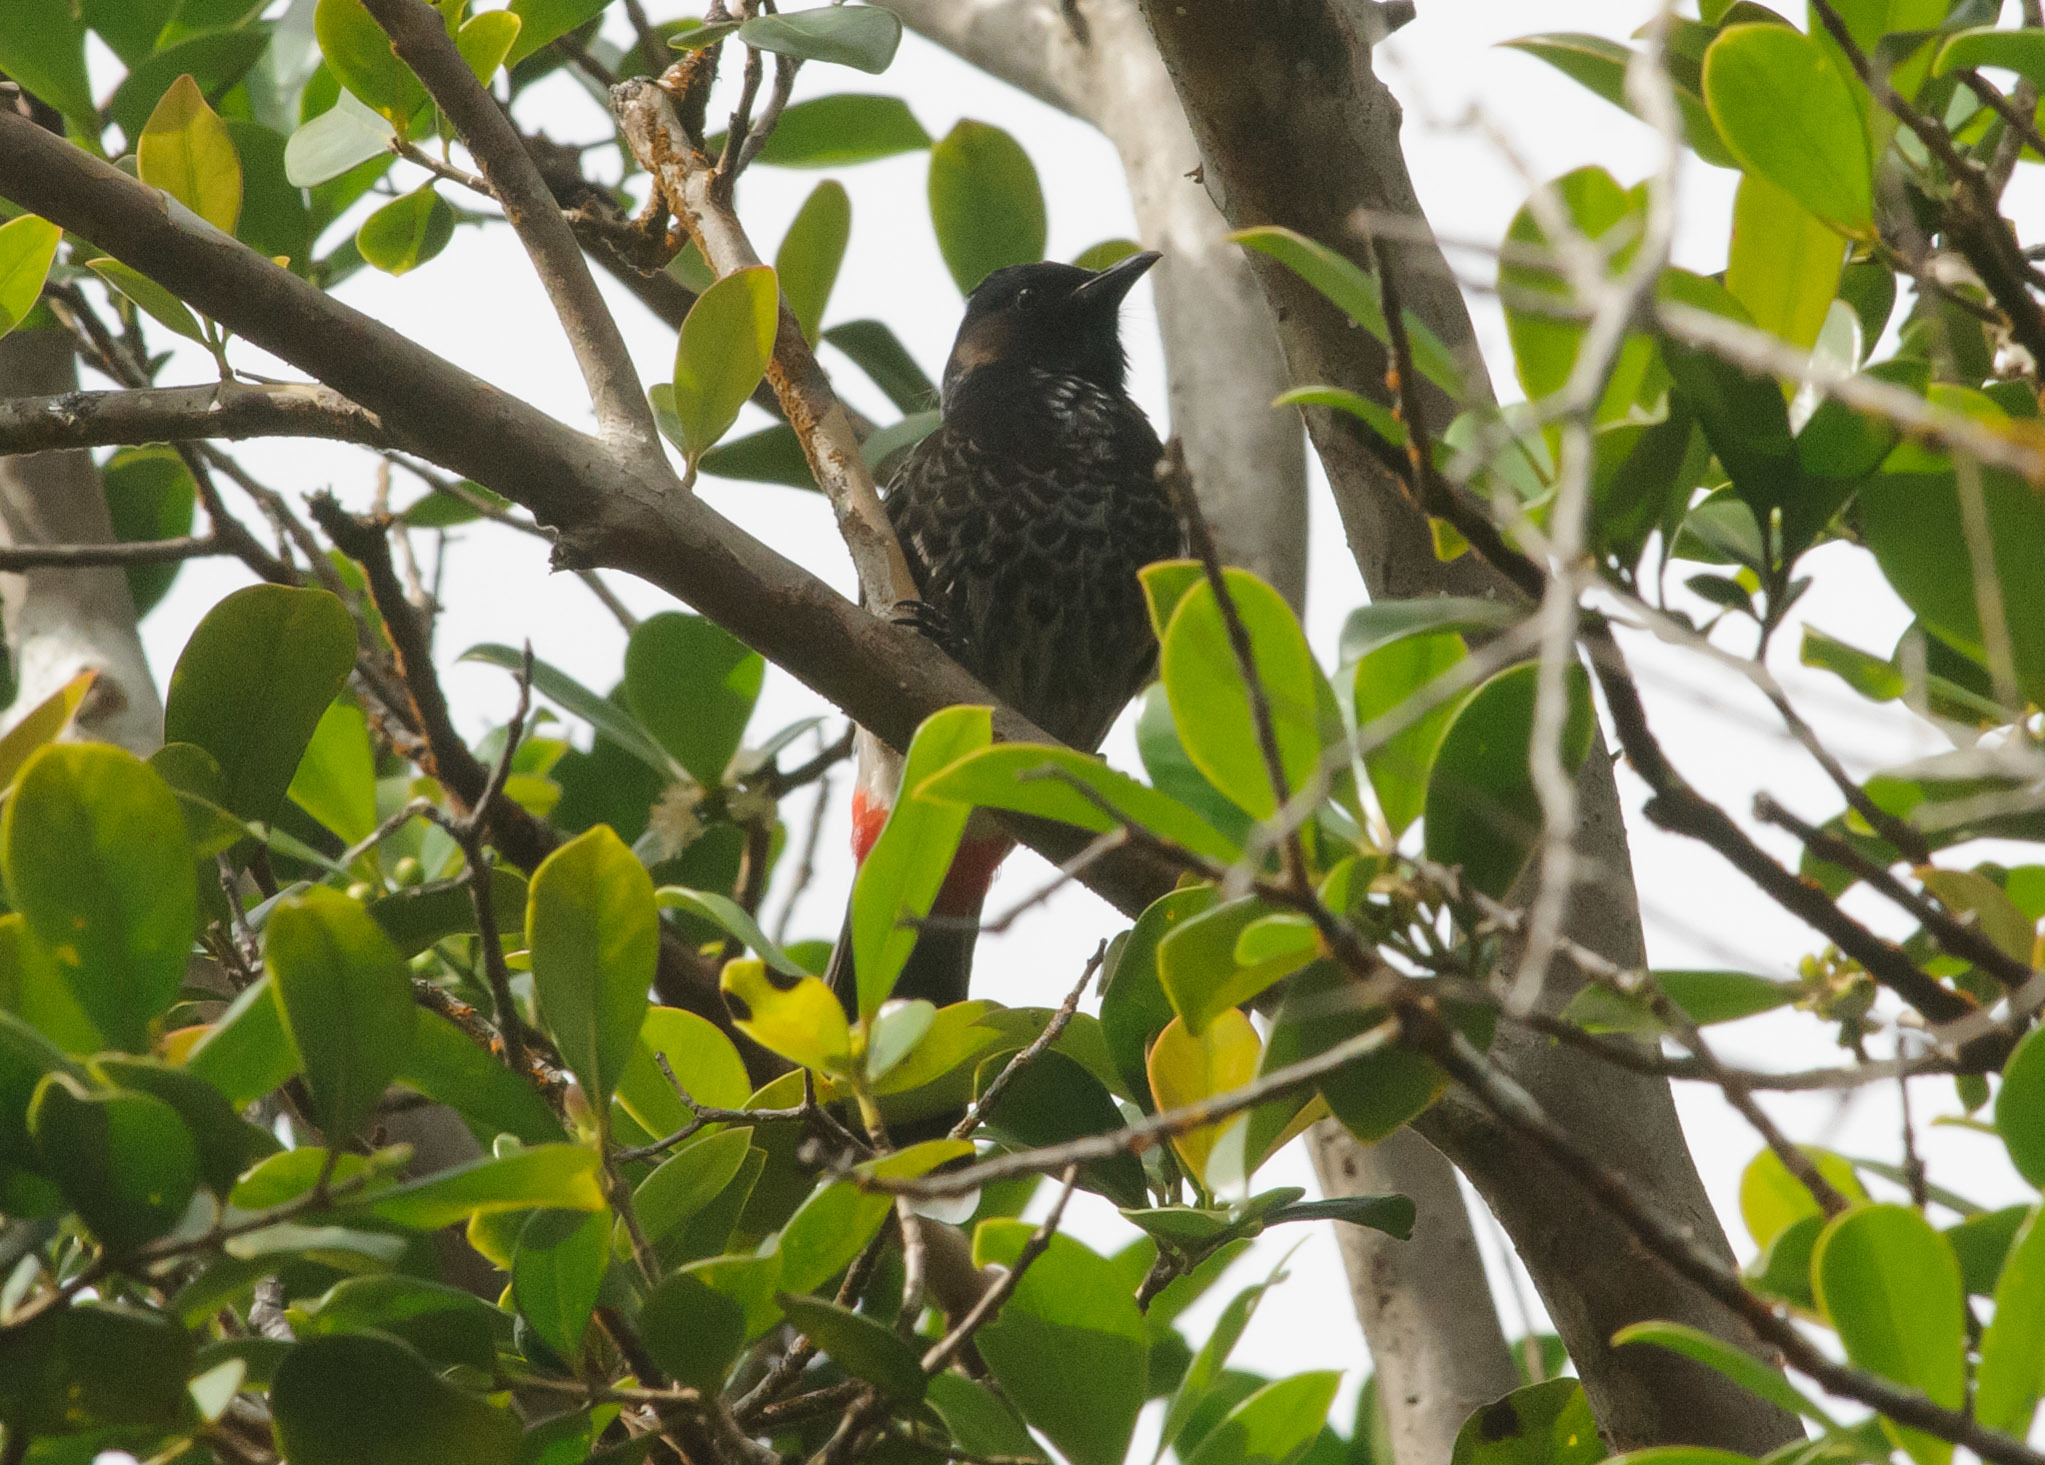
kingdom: Animalia
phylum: Chordata
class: Aves
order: Passeriformes
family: Pycnonotidae
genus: Pycnonotus
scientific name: Pycnonotus cafer
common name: Red-vented bulbul
